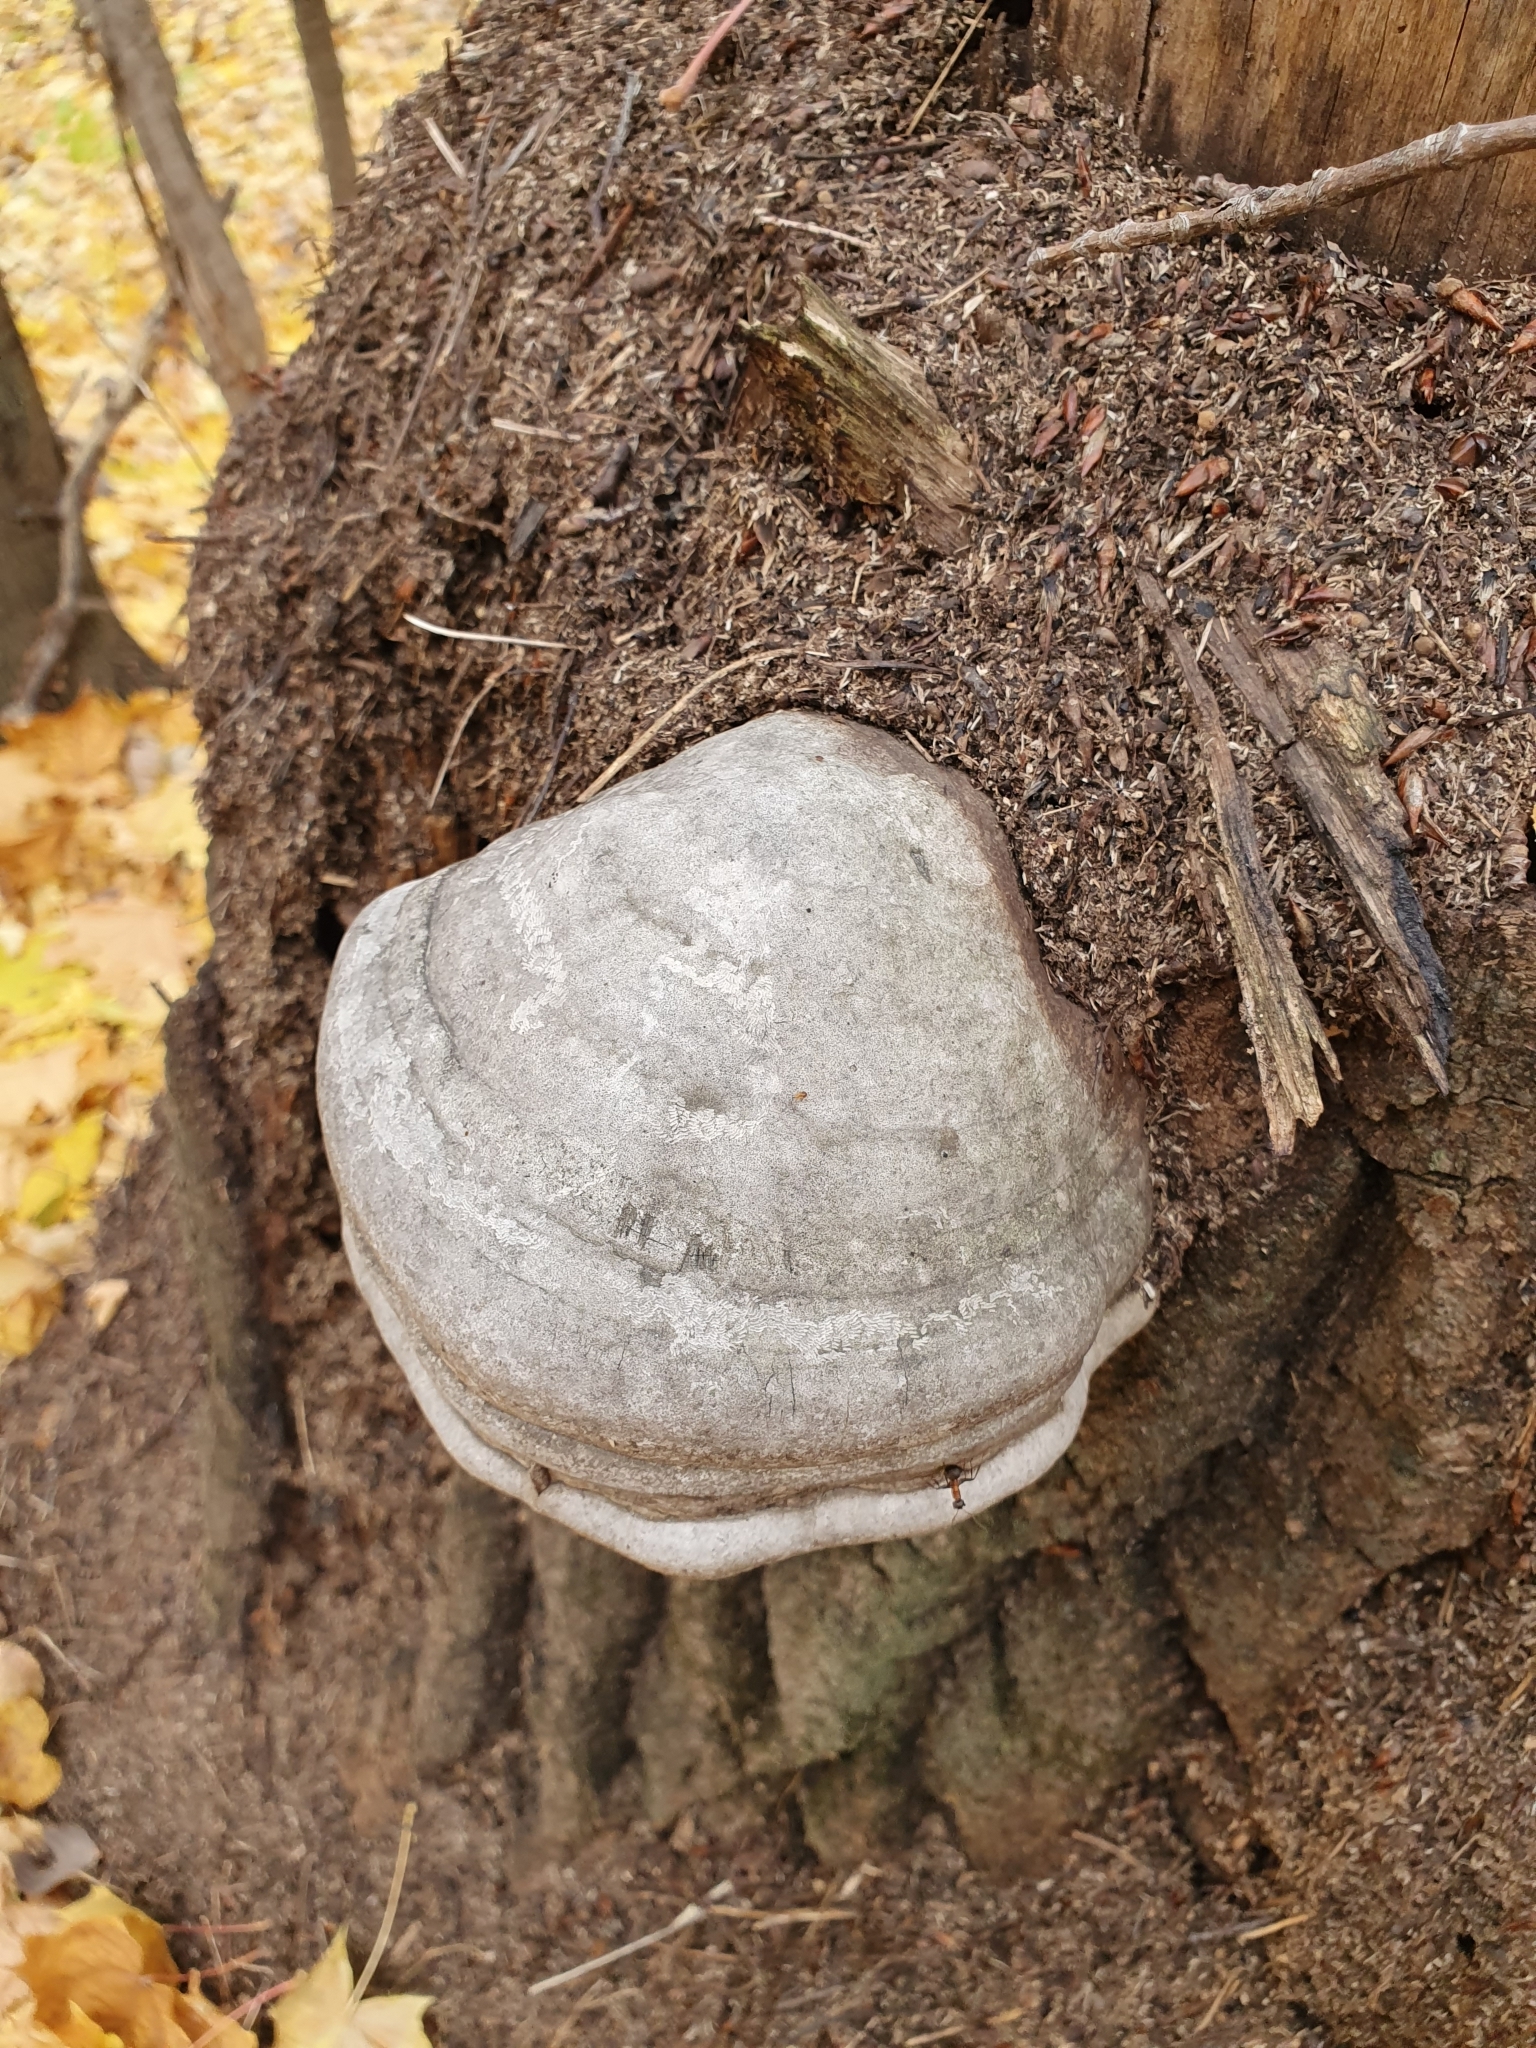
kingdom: Fungi
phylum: Basidiomycota
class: Agaricomycetes
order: Polyporales
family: Polyporaceae
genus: Fomes
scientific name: Fomes fomentarius
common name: Hoof fungus
